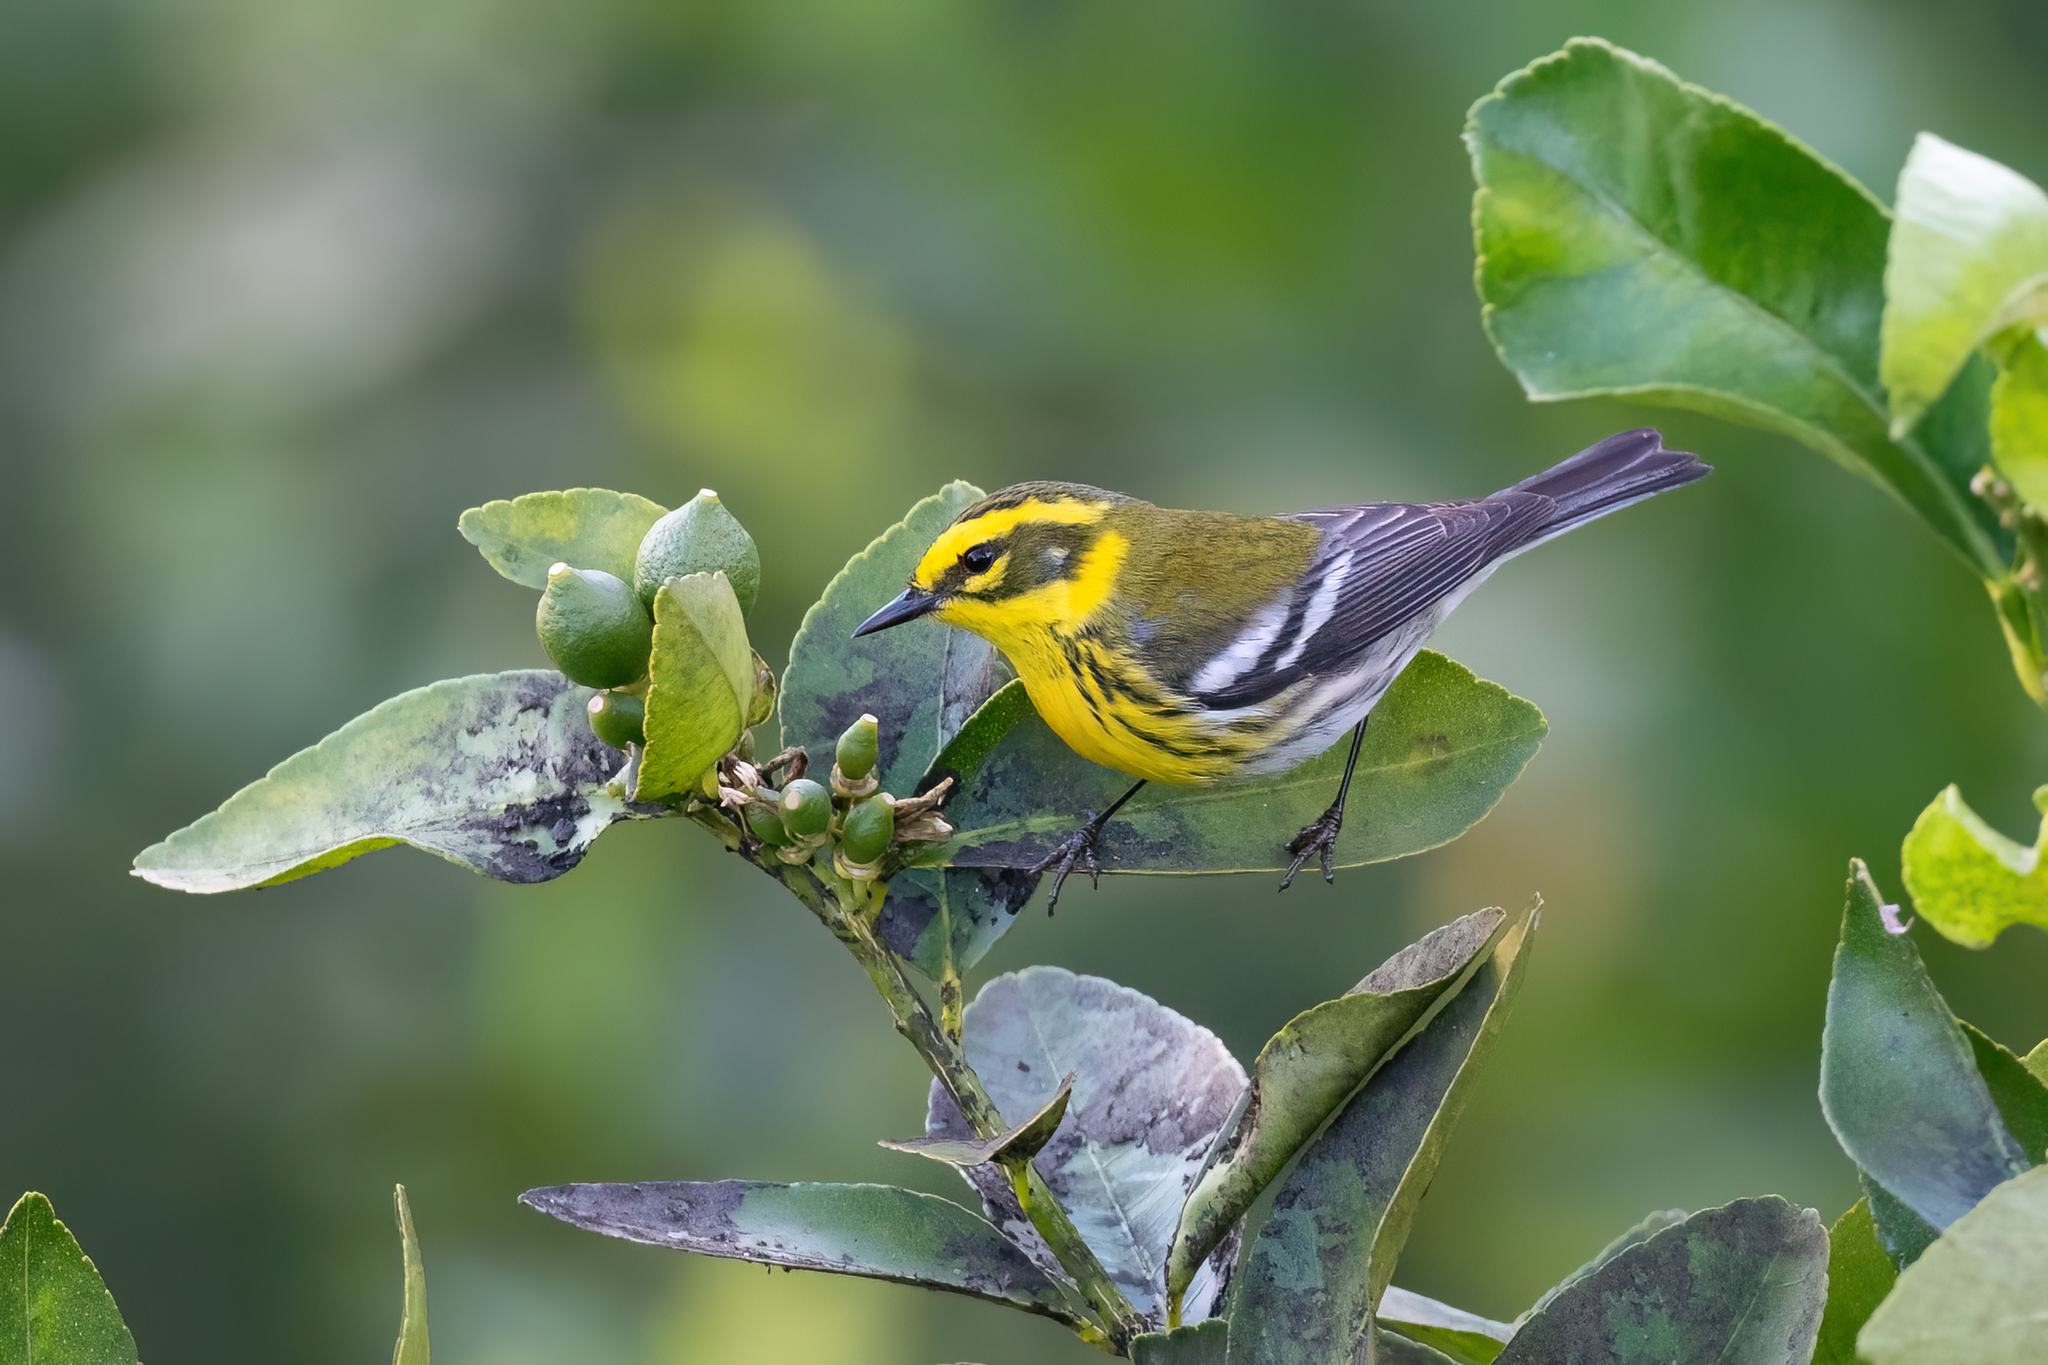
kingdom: Animalia
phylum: Chordata
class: Aves
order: Passeriformes
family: Parulidae
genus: Setophaga
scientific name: Setophaga townsendi
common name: Townsend's warbler
